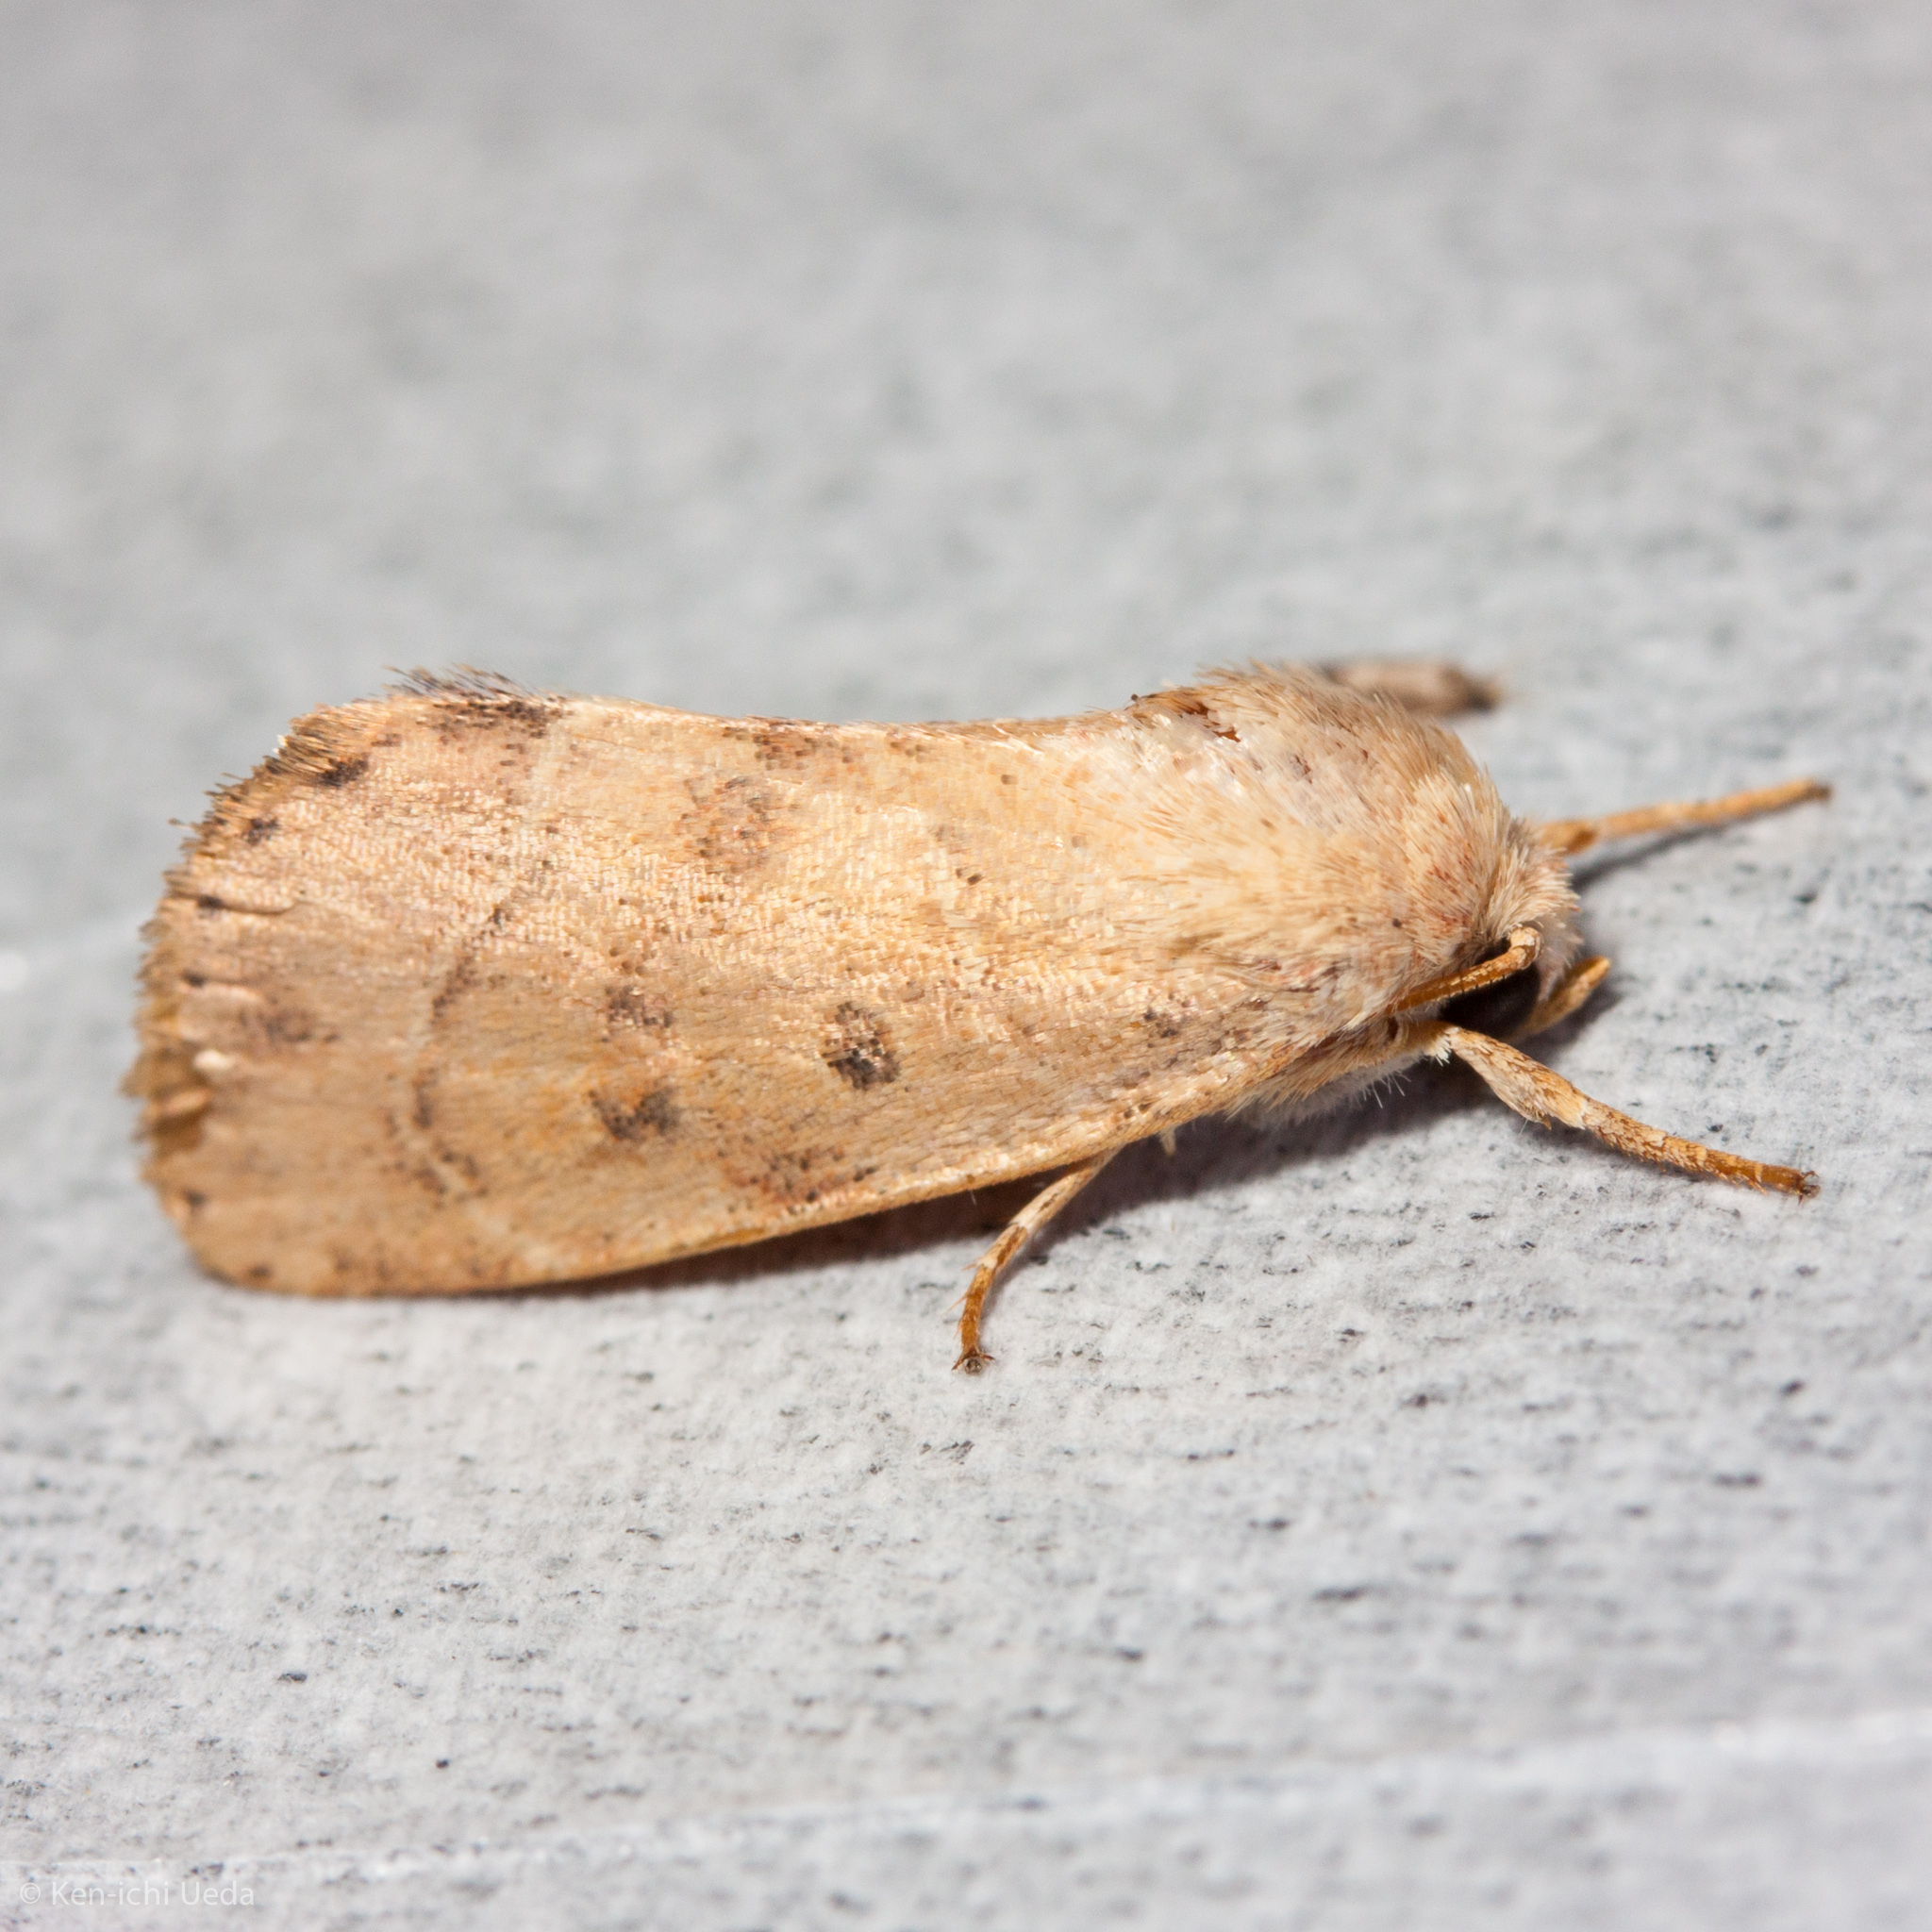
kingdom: Animalia
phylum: Arthropoda
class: Insecta
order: Lepidoptera
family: Noctuidae
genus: Cosmia
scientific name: Cosmia calami
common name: American dun-bar moth
